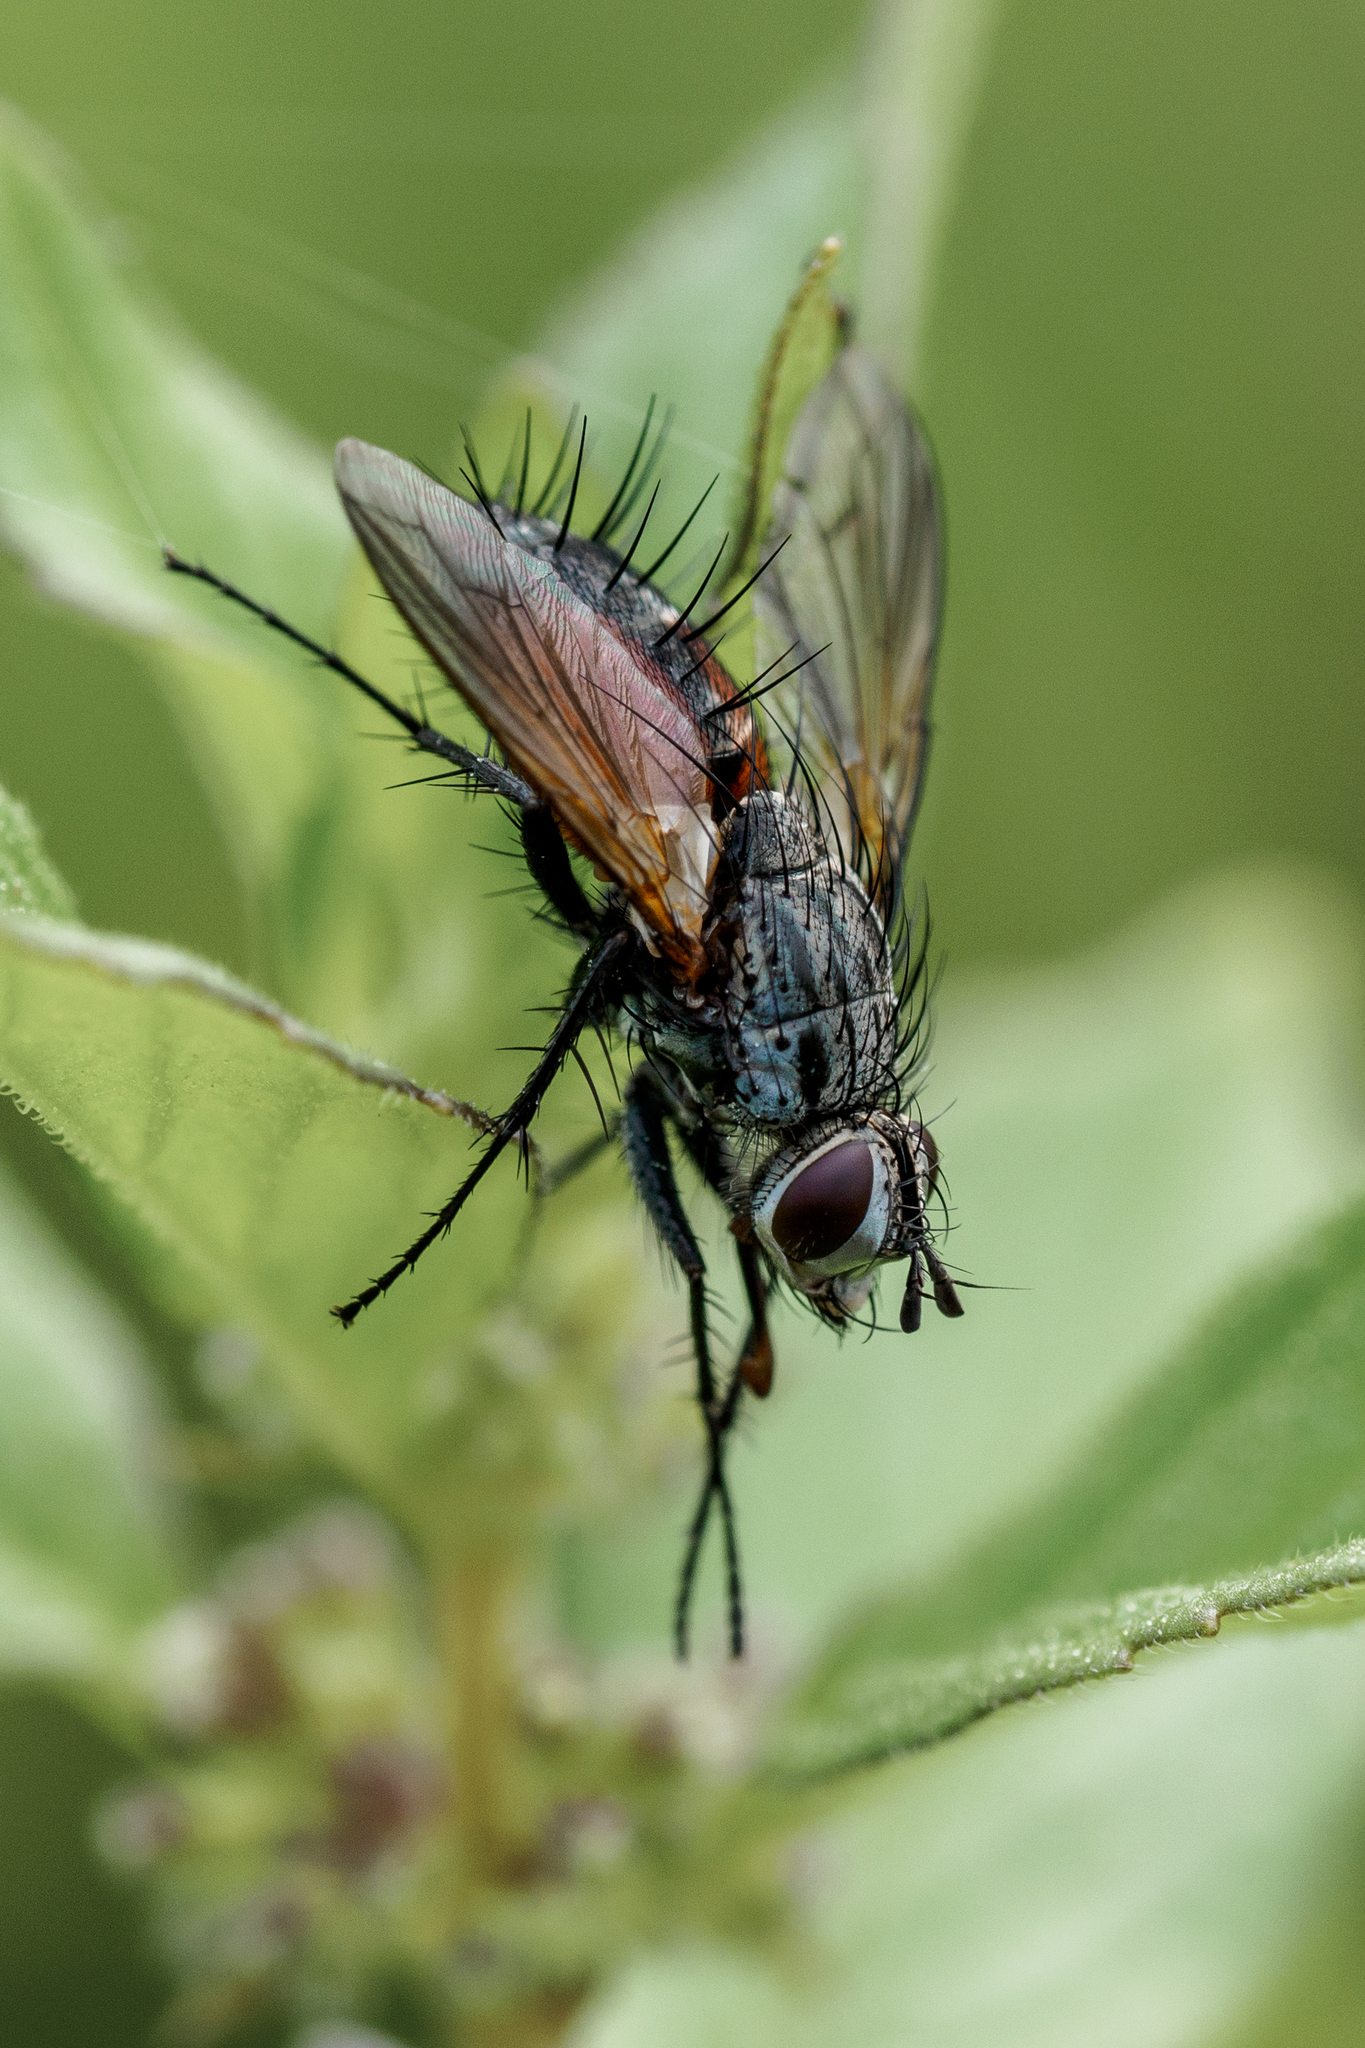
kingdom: Animalia
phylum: Arthropoda
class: Insecta
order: Diptera
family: Tachinidae
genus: Eriothrix
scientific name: Eriothrix rufomaculatus
